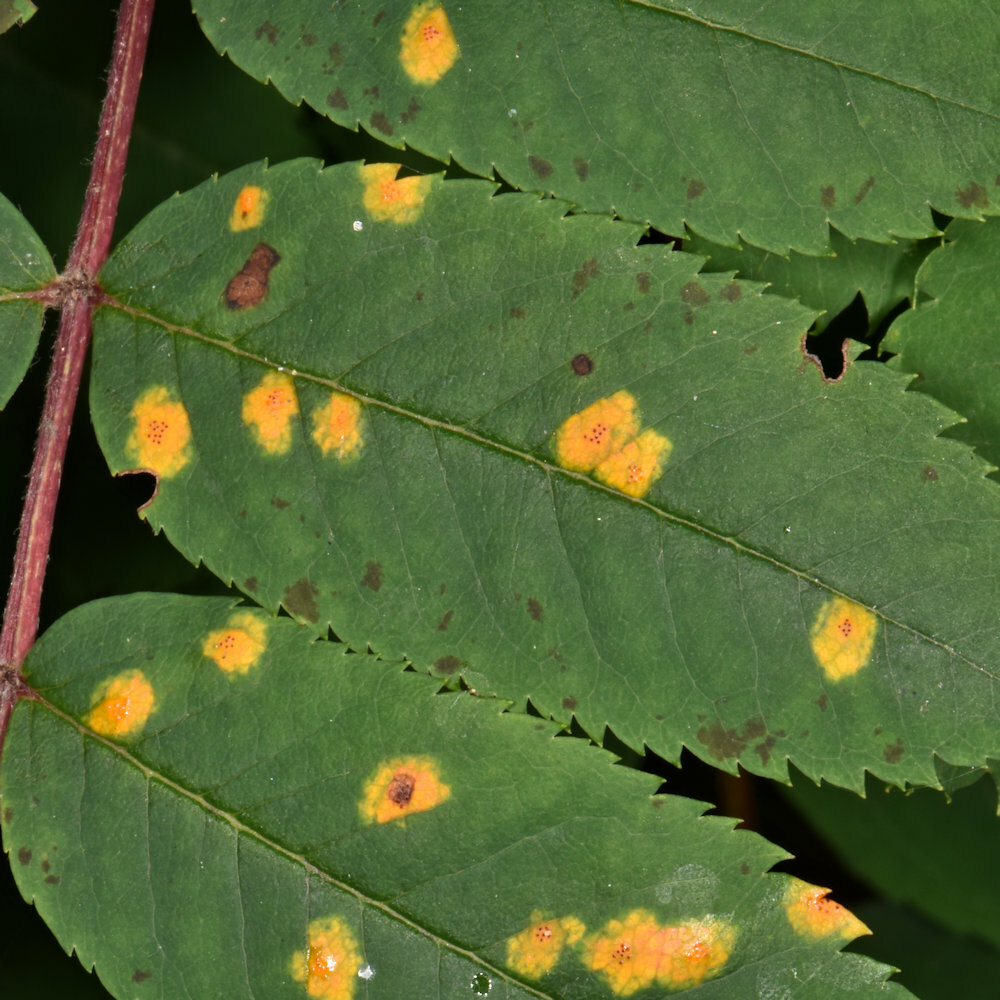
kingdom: Animalia
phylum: Arthropoda
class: Arachnida
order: Trombidiformes
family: Eriophyidae
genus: Eriophyes
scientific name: Eriophyes sorbi
